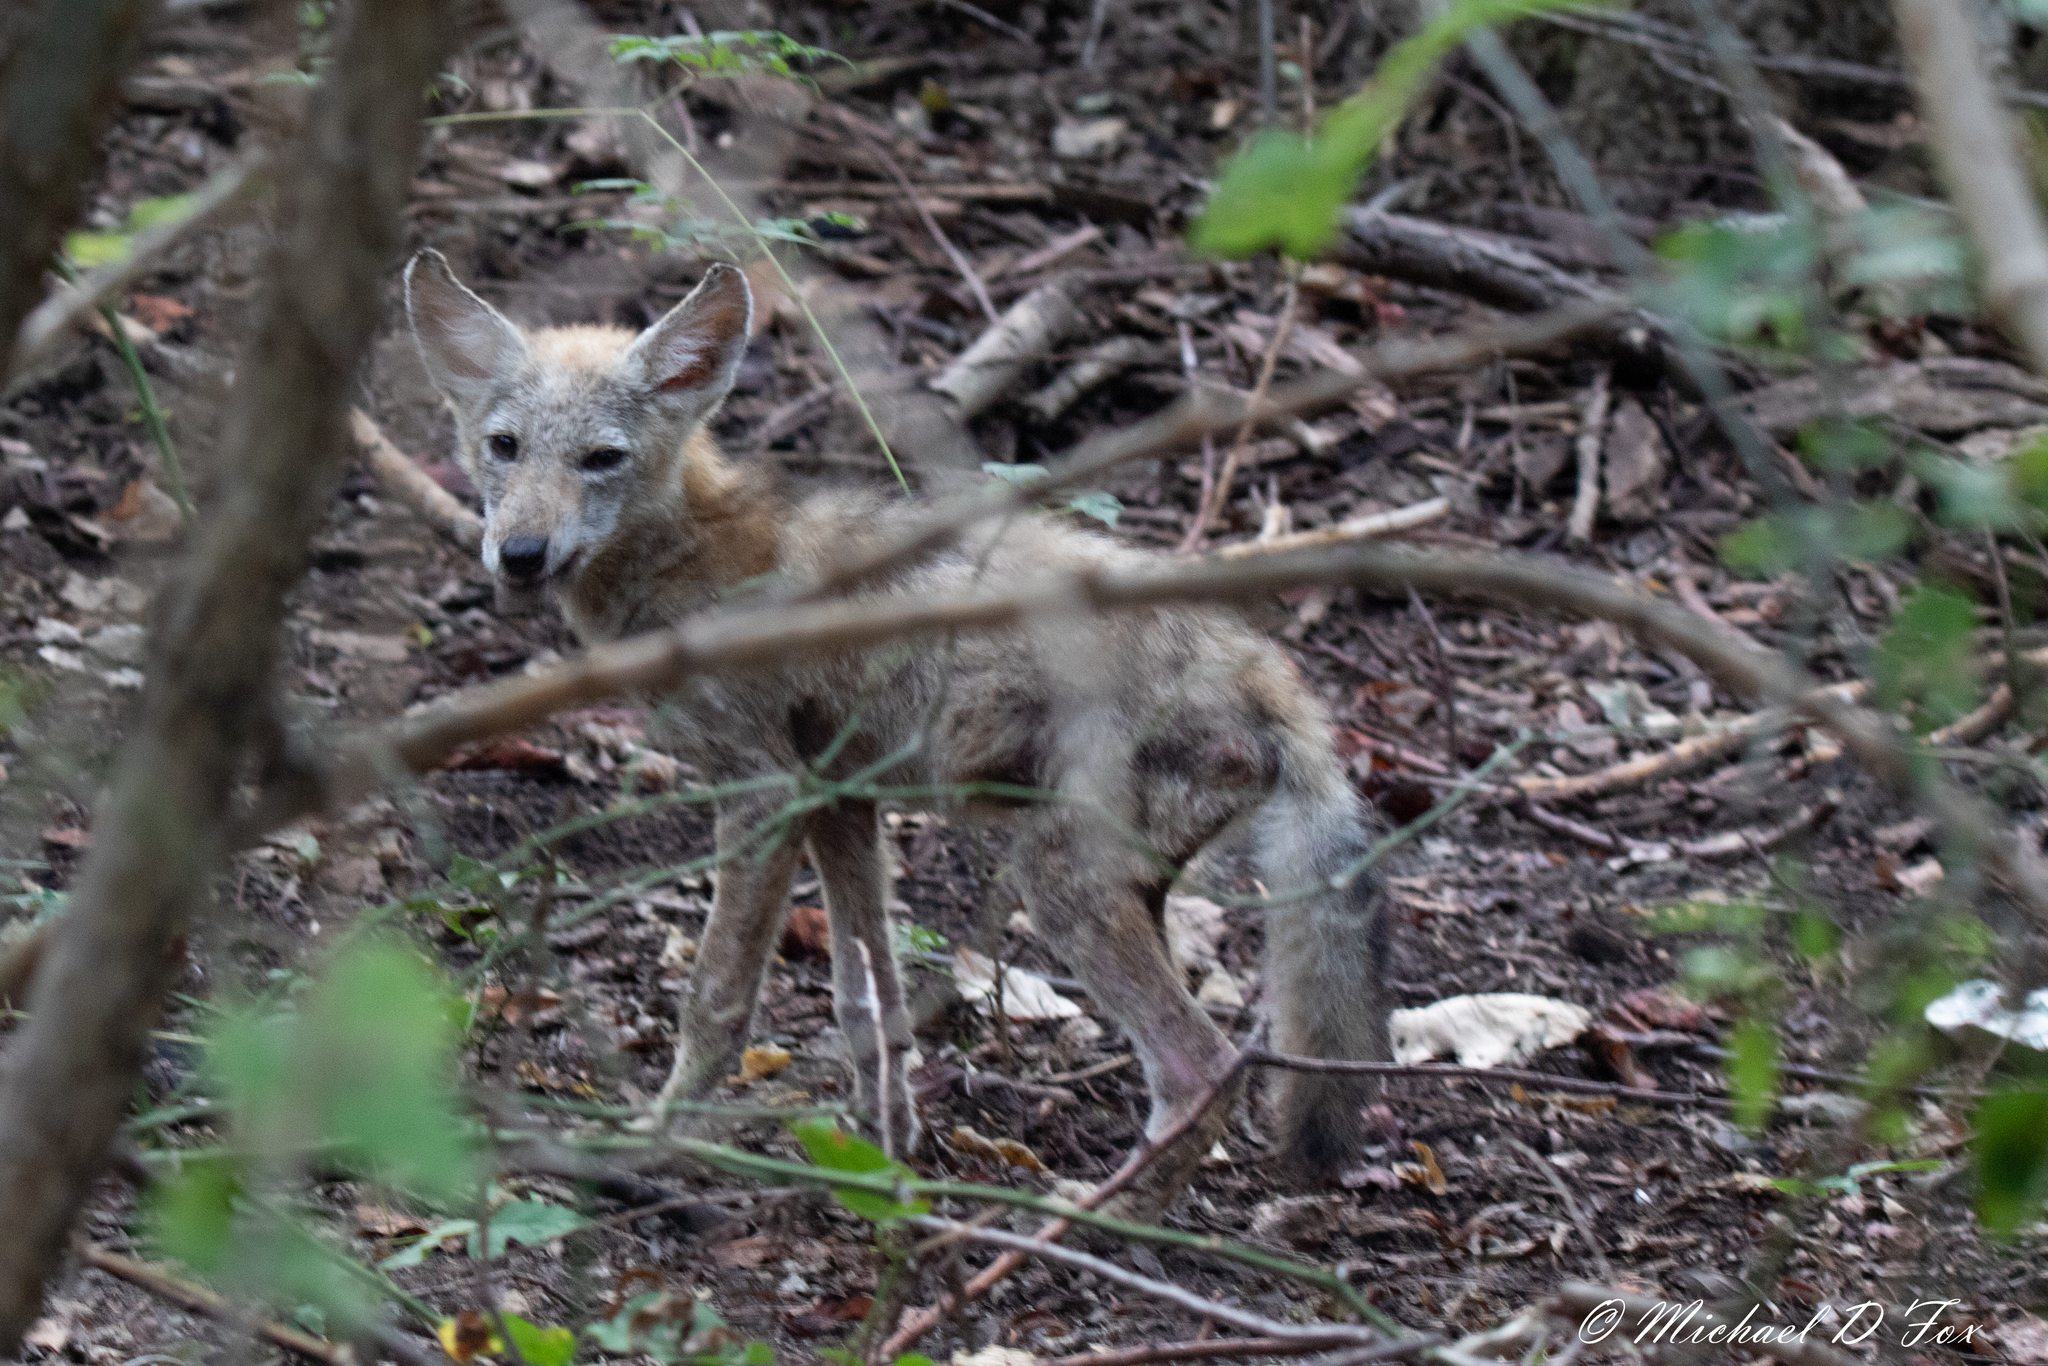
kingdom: Animalia
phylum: Chordata
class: Mammalia
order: Carnivora
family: Canidae
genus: Canis
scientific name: Canis latrans
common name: Coyote
